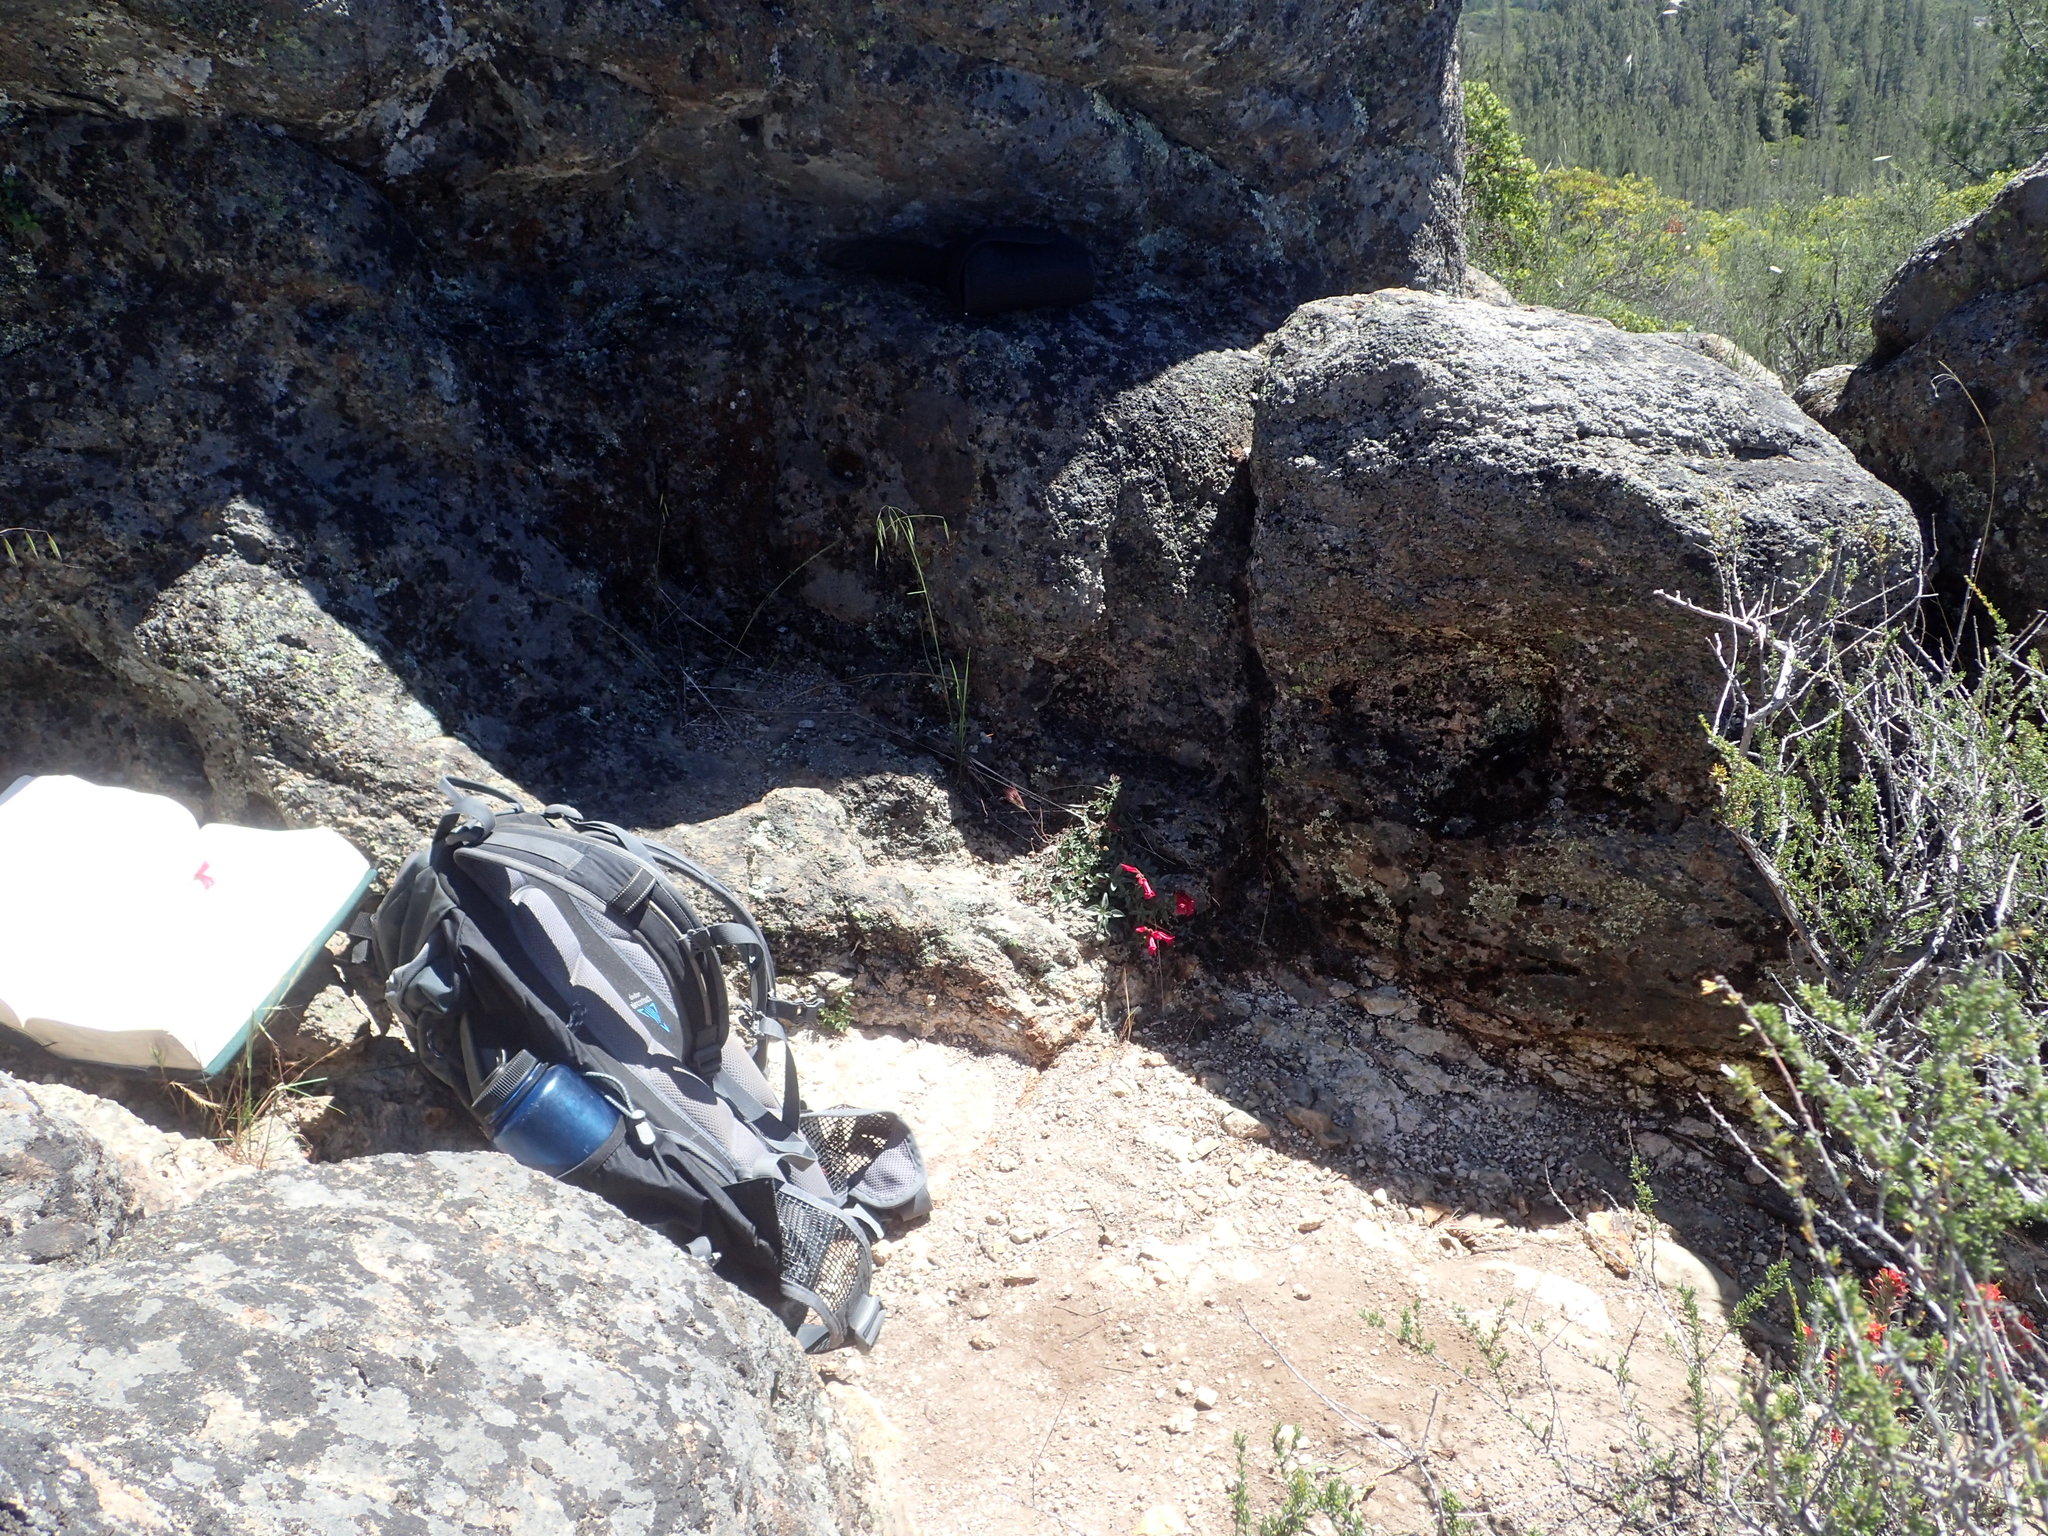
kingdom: Plantae
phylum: Tracheophyta
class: Magnoliopsida
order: Lamiales
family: Plantaginaceae
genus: Penstemon
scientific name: Penstemon newberryi
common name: Mountain-pride
